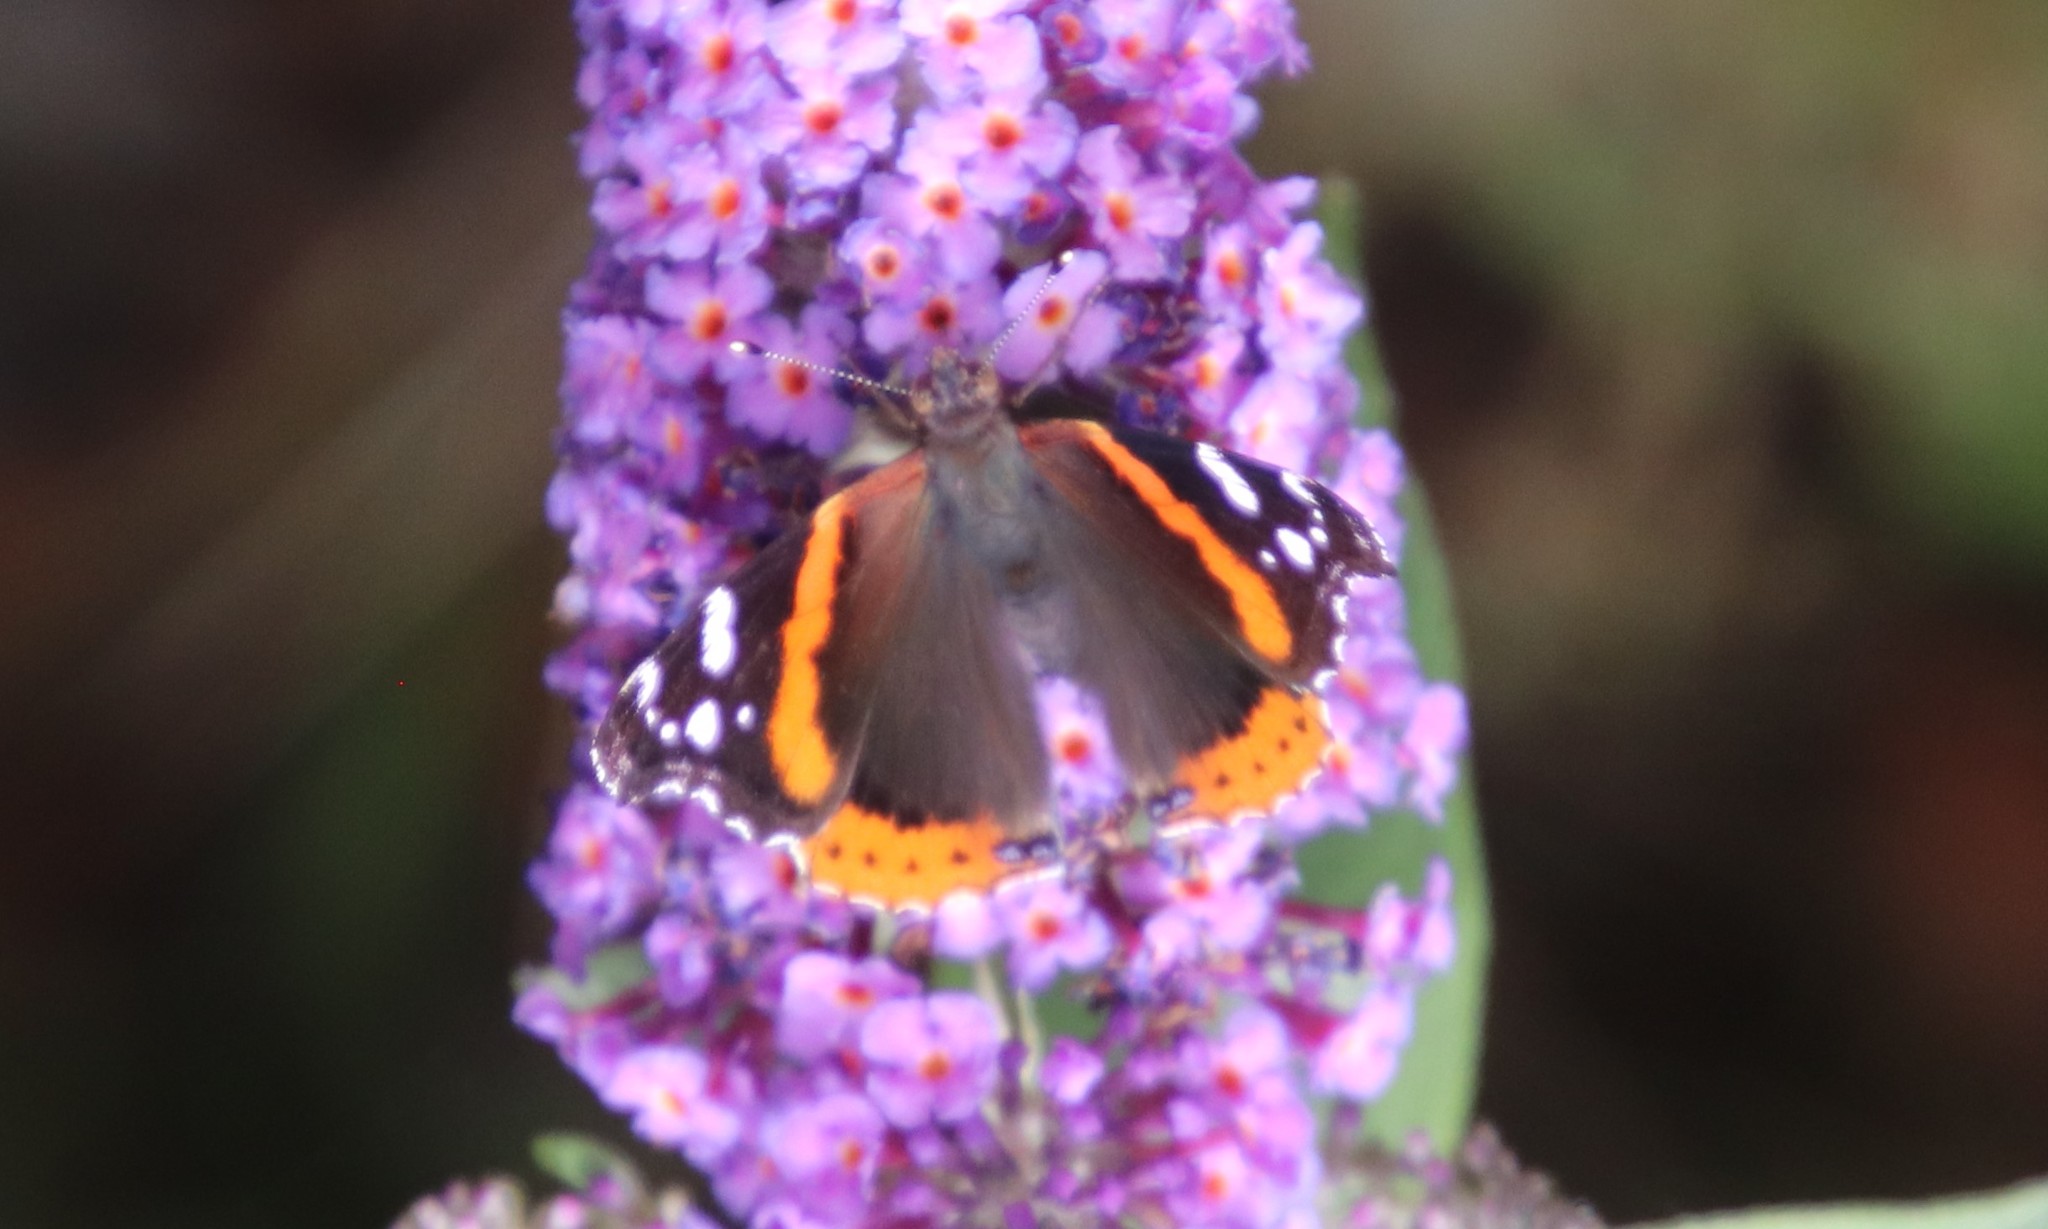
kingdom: Animalia
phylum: Arthropoda
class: Insecta
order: Lepidoptera
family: Nymphalidae
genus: Vanessa
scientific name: Vanessa atalanta
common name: Red admiral
